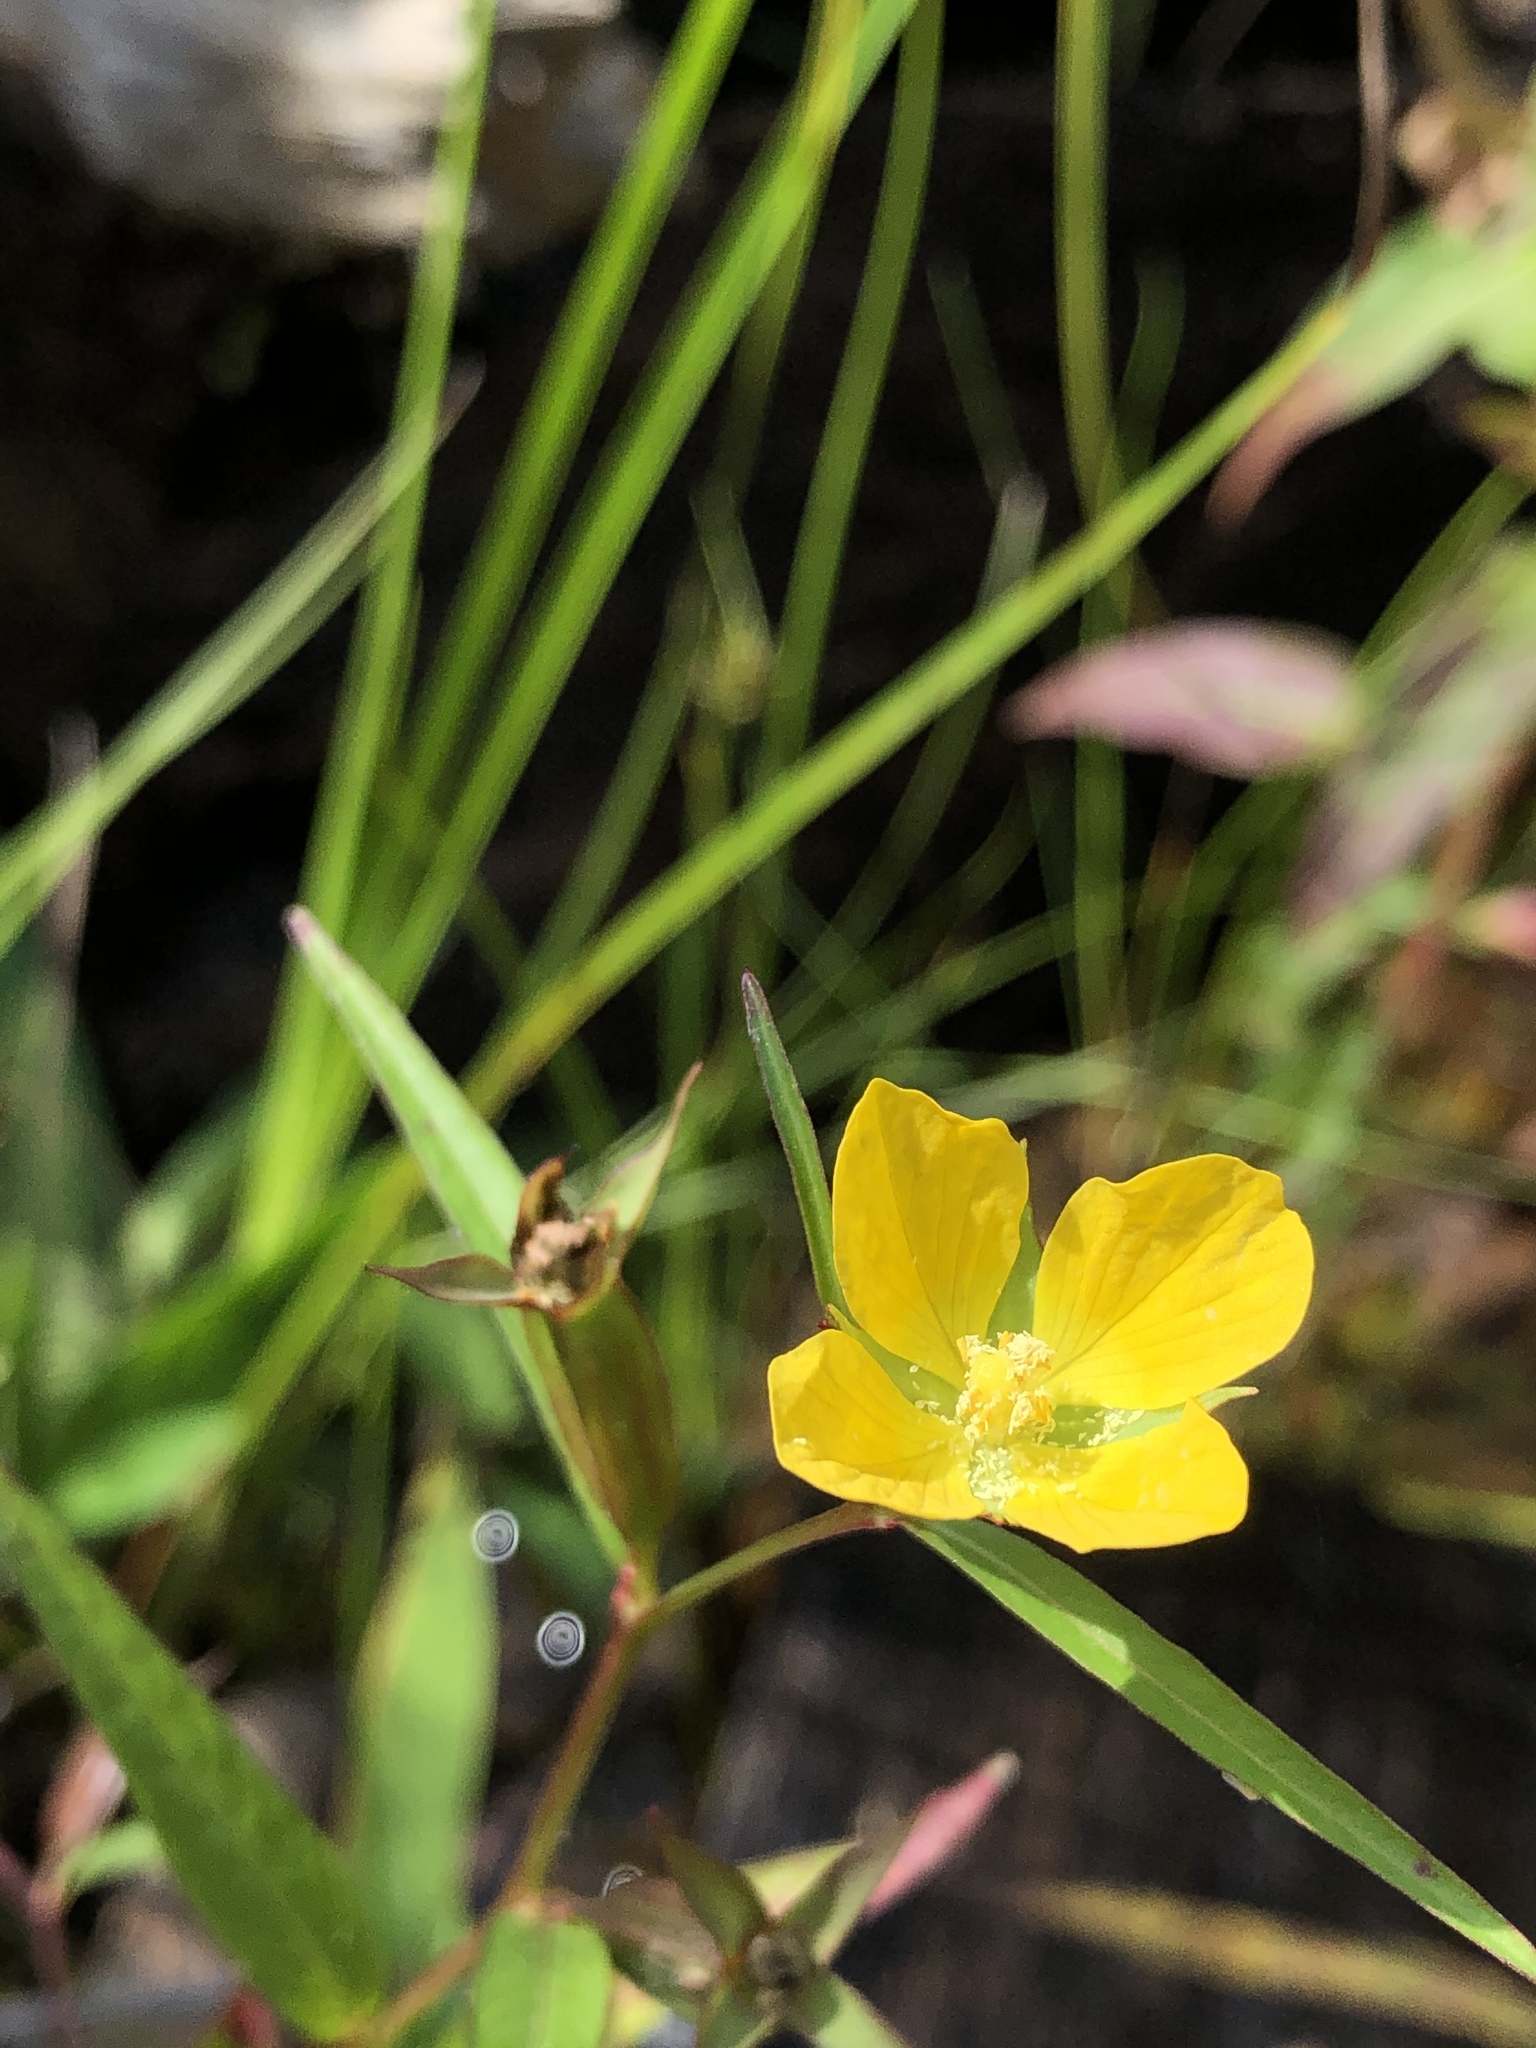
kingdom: Plantae
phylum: Tracheophyta
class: Magnoliopsida
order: Myrtales
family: Onagraceae
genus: Ludwigia
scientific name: Ludwigia decurrens
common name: Winged water-primrose
